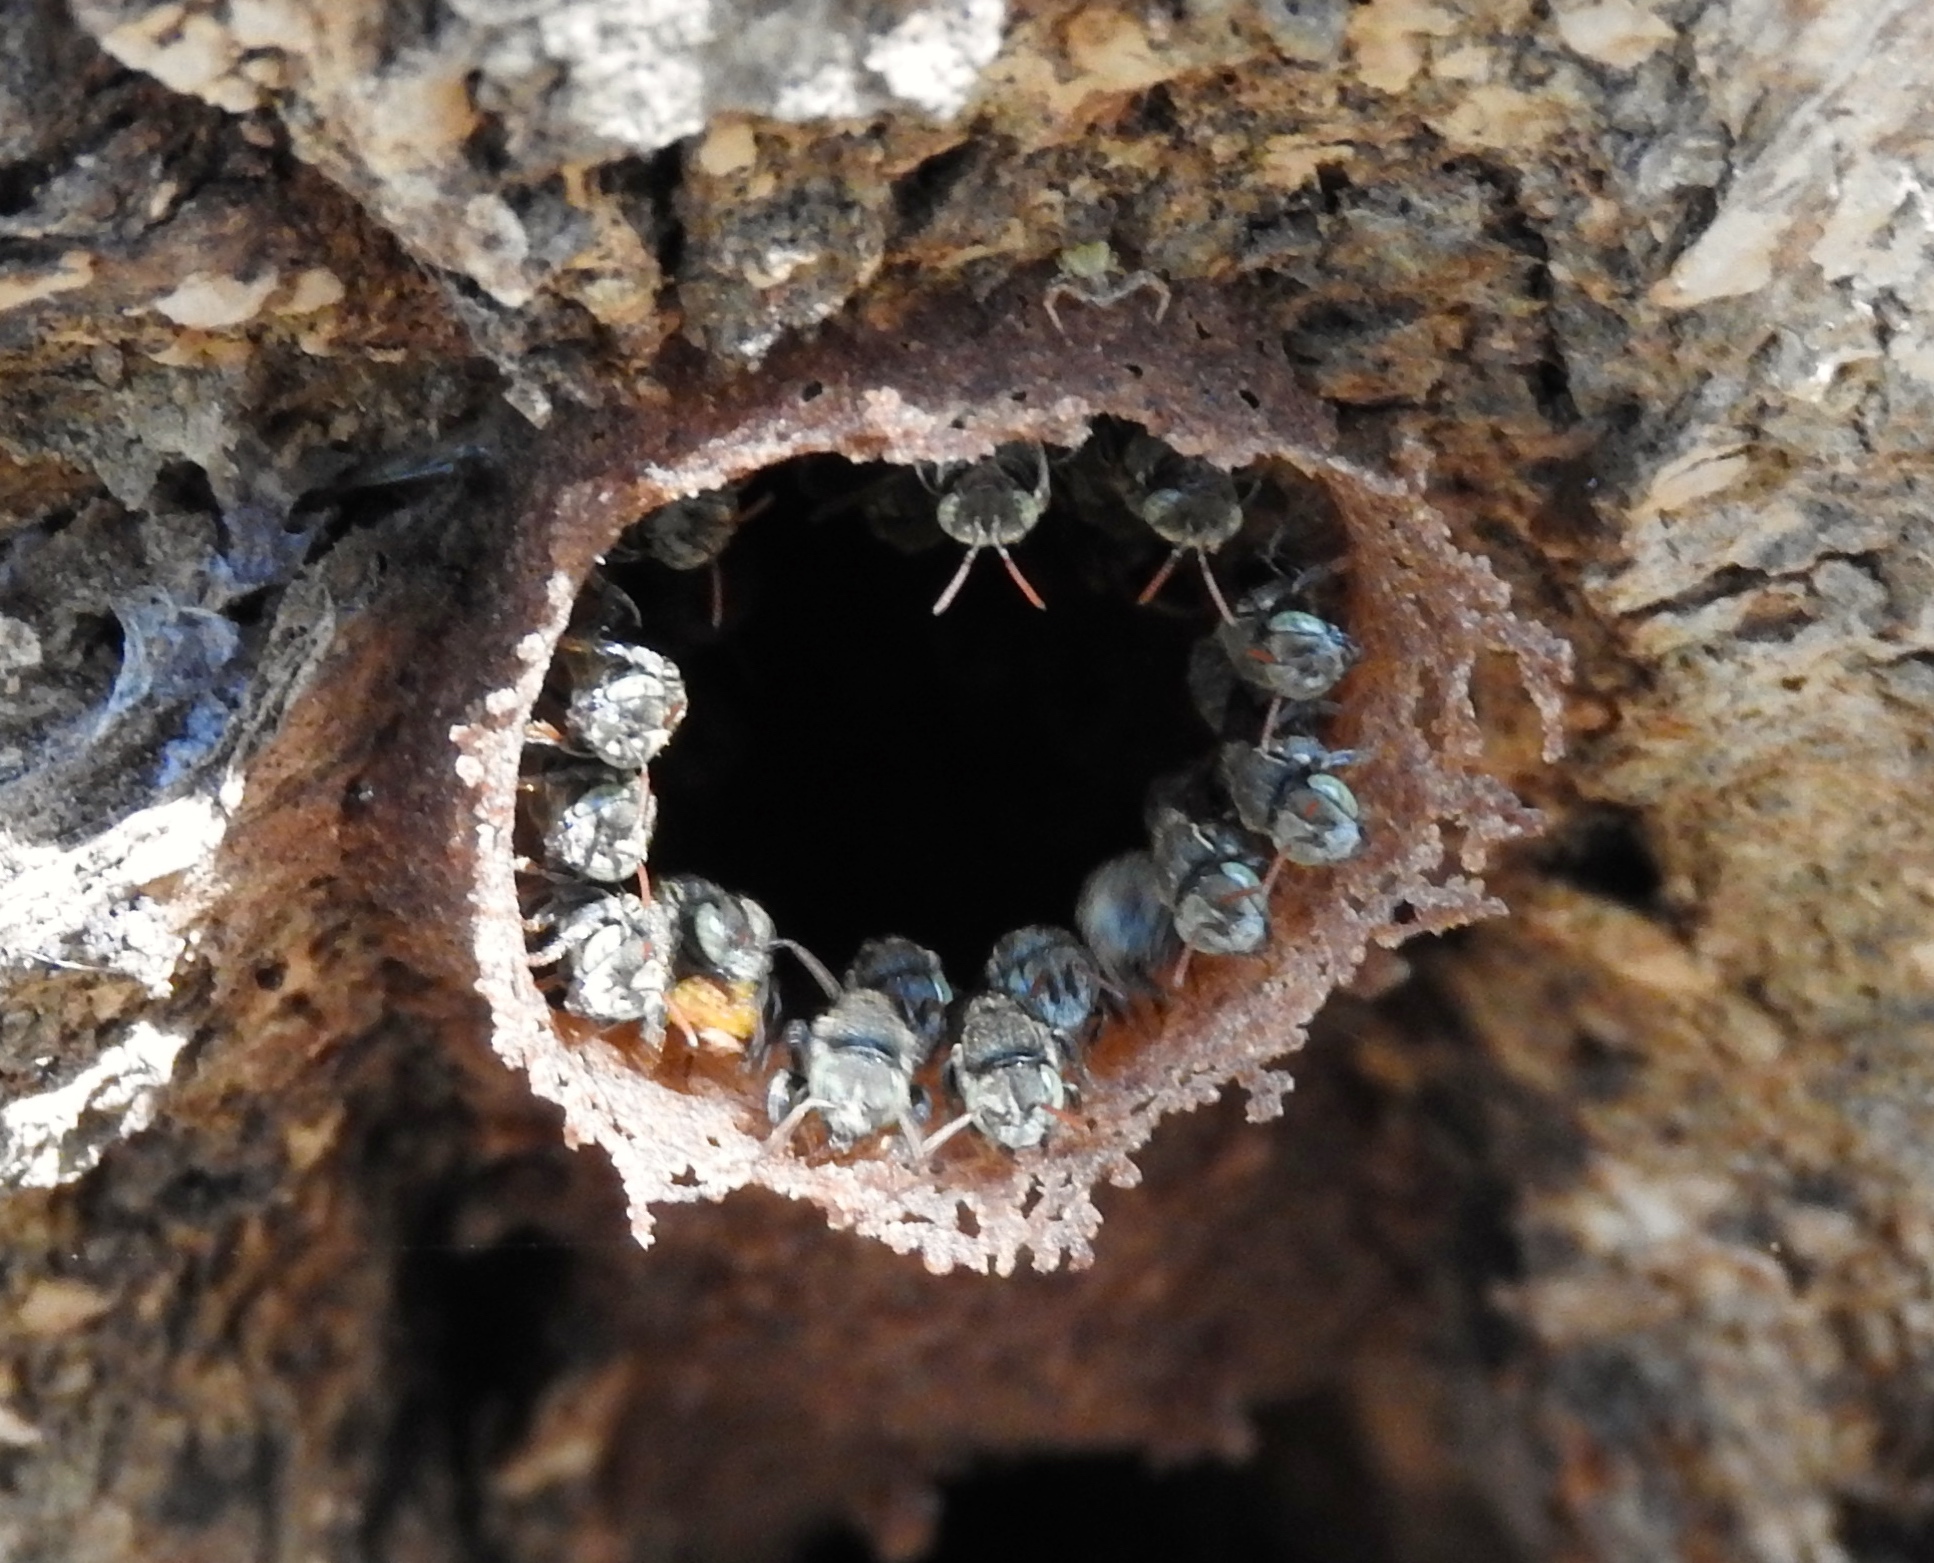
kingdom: Animalia
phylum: Arthropoda
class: Insecta
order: Hymenoptera
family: Apidae
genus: Nannotrigona
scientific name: Nannotrigona perilampoides
